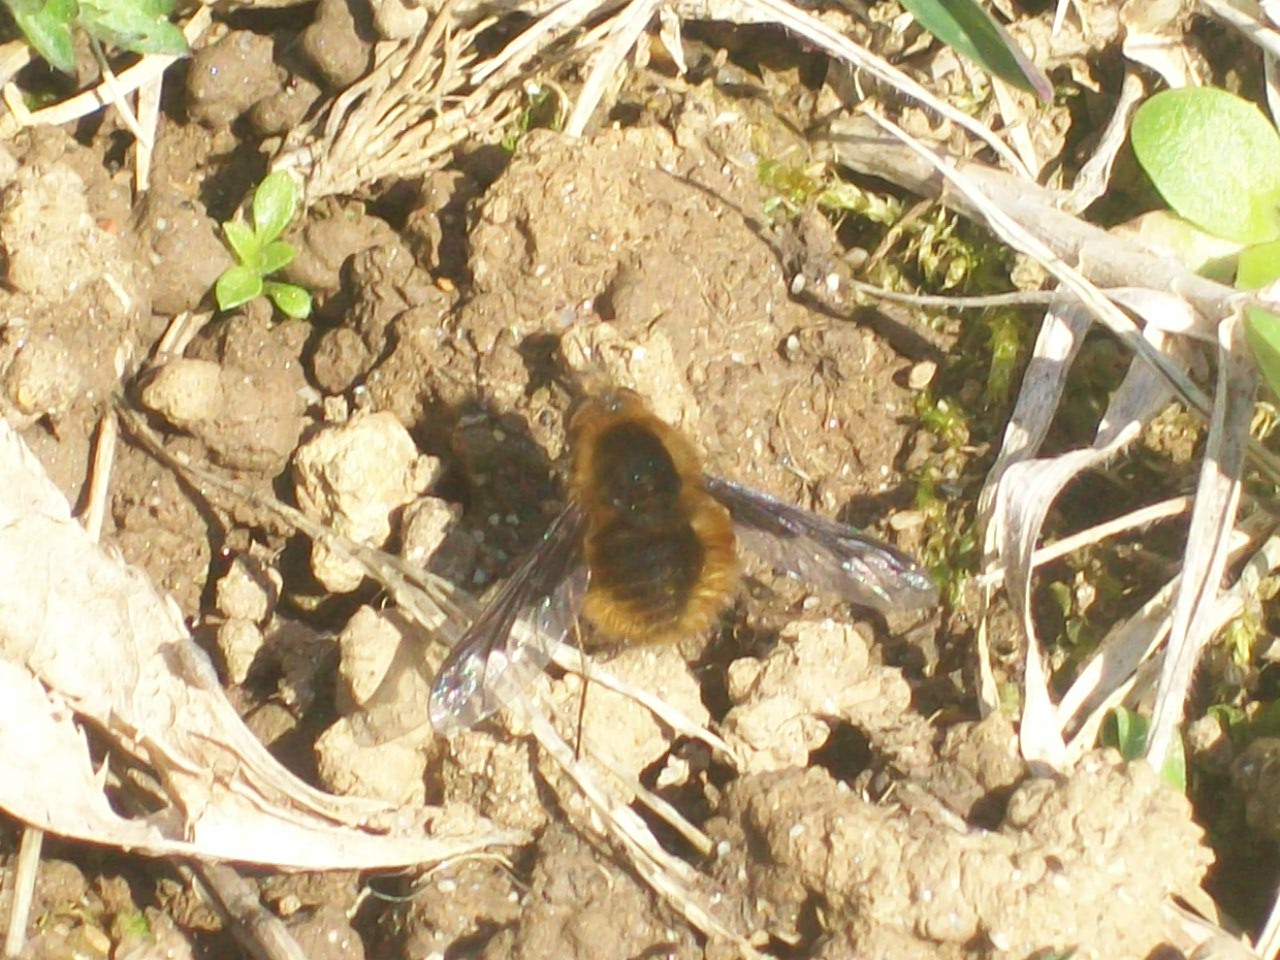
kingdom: Animalia
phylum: Arthropoda
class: Insecta
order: Diptera
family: Bombyliidae
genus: Bombylius
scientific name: Bombylius major
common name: Bee fly
